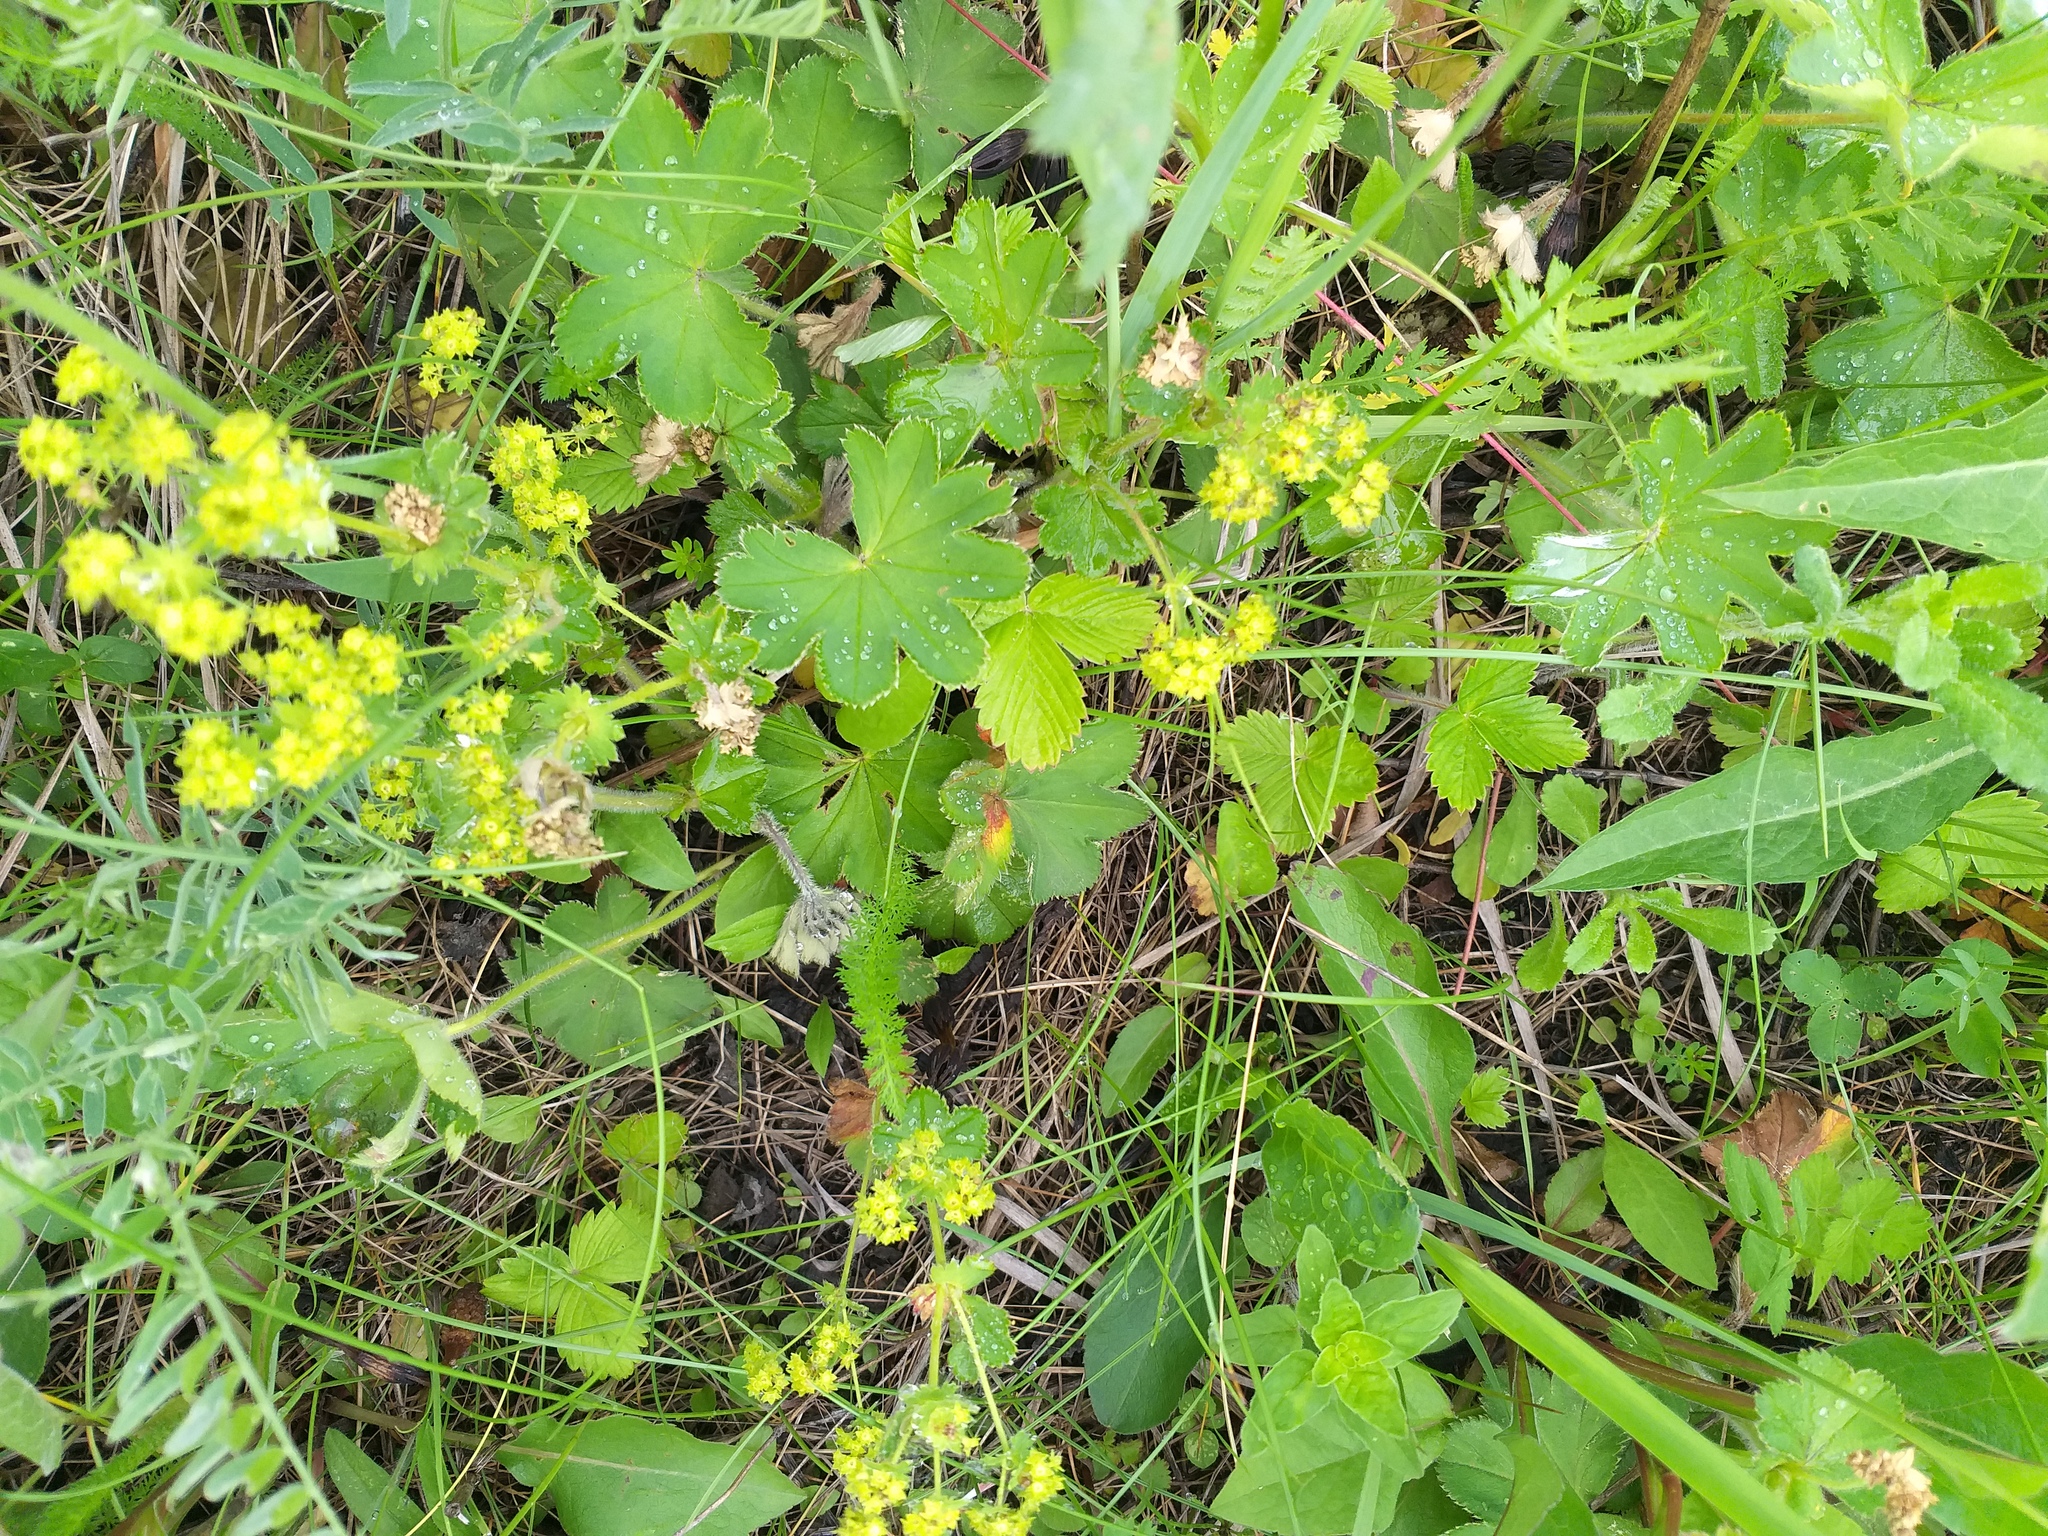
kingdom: Plantae
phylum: Tracheophyta
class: Magnoliopsida
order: Rosales
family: Rosaceae
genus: Alchemilla
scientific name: Alchemilla sarmatica
